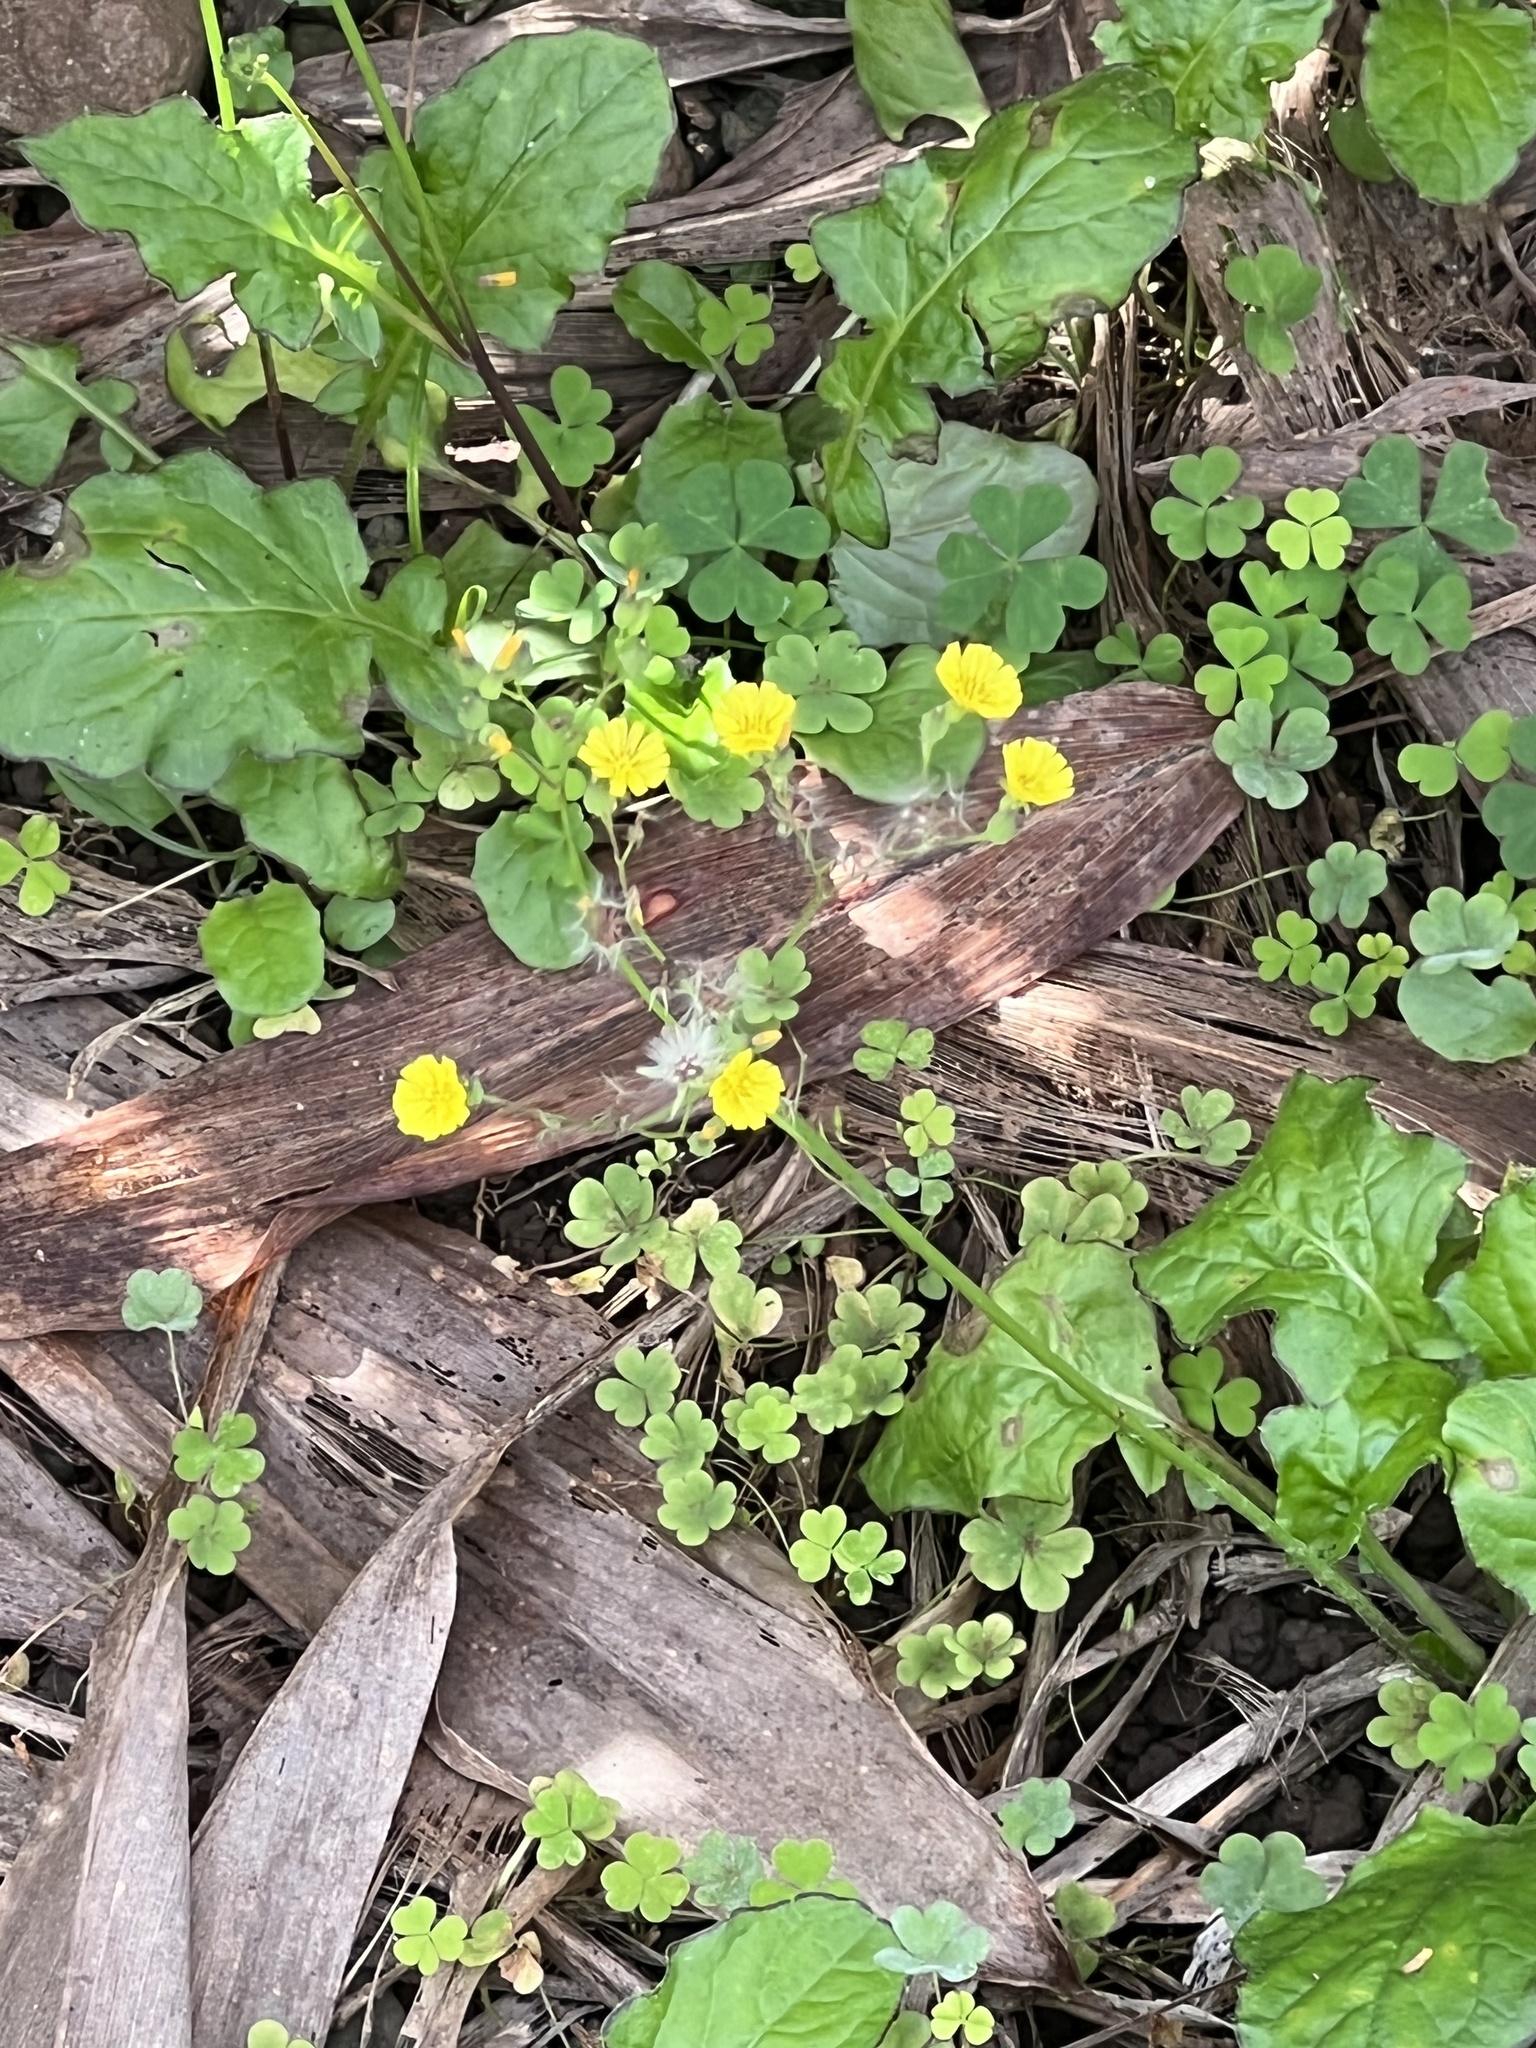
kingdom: Plantae
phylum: Tracheophyta
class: Magnoliopsida
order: Asterales
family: Asteraceae
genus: Youngia
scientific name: Youngia japonica
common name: Oriental false hawksbeard
